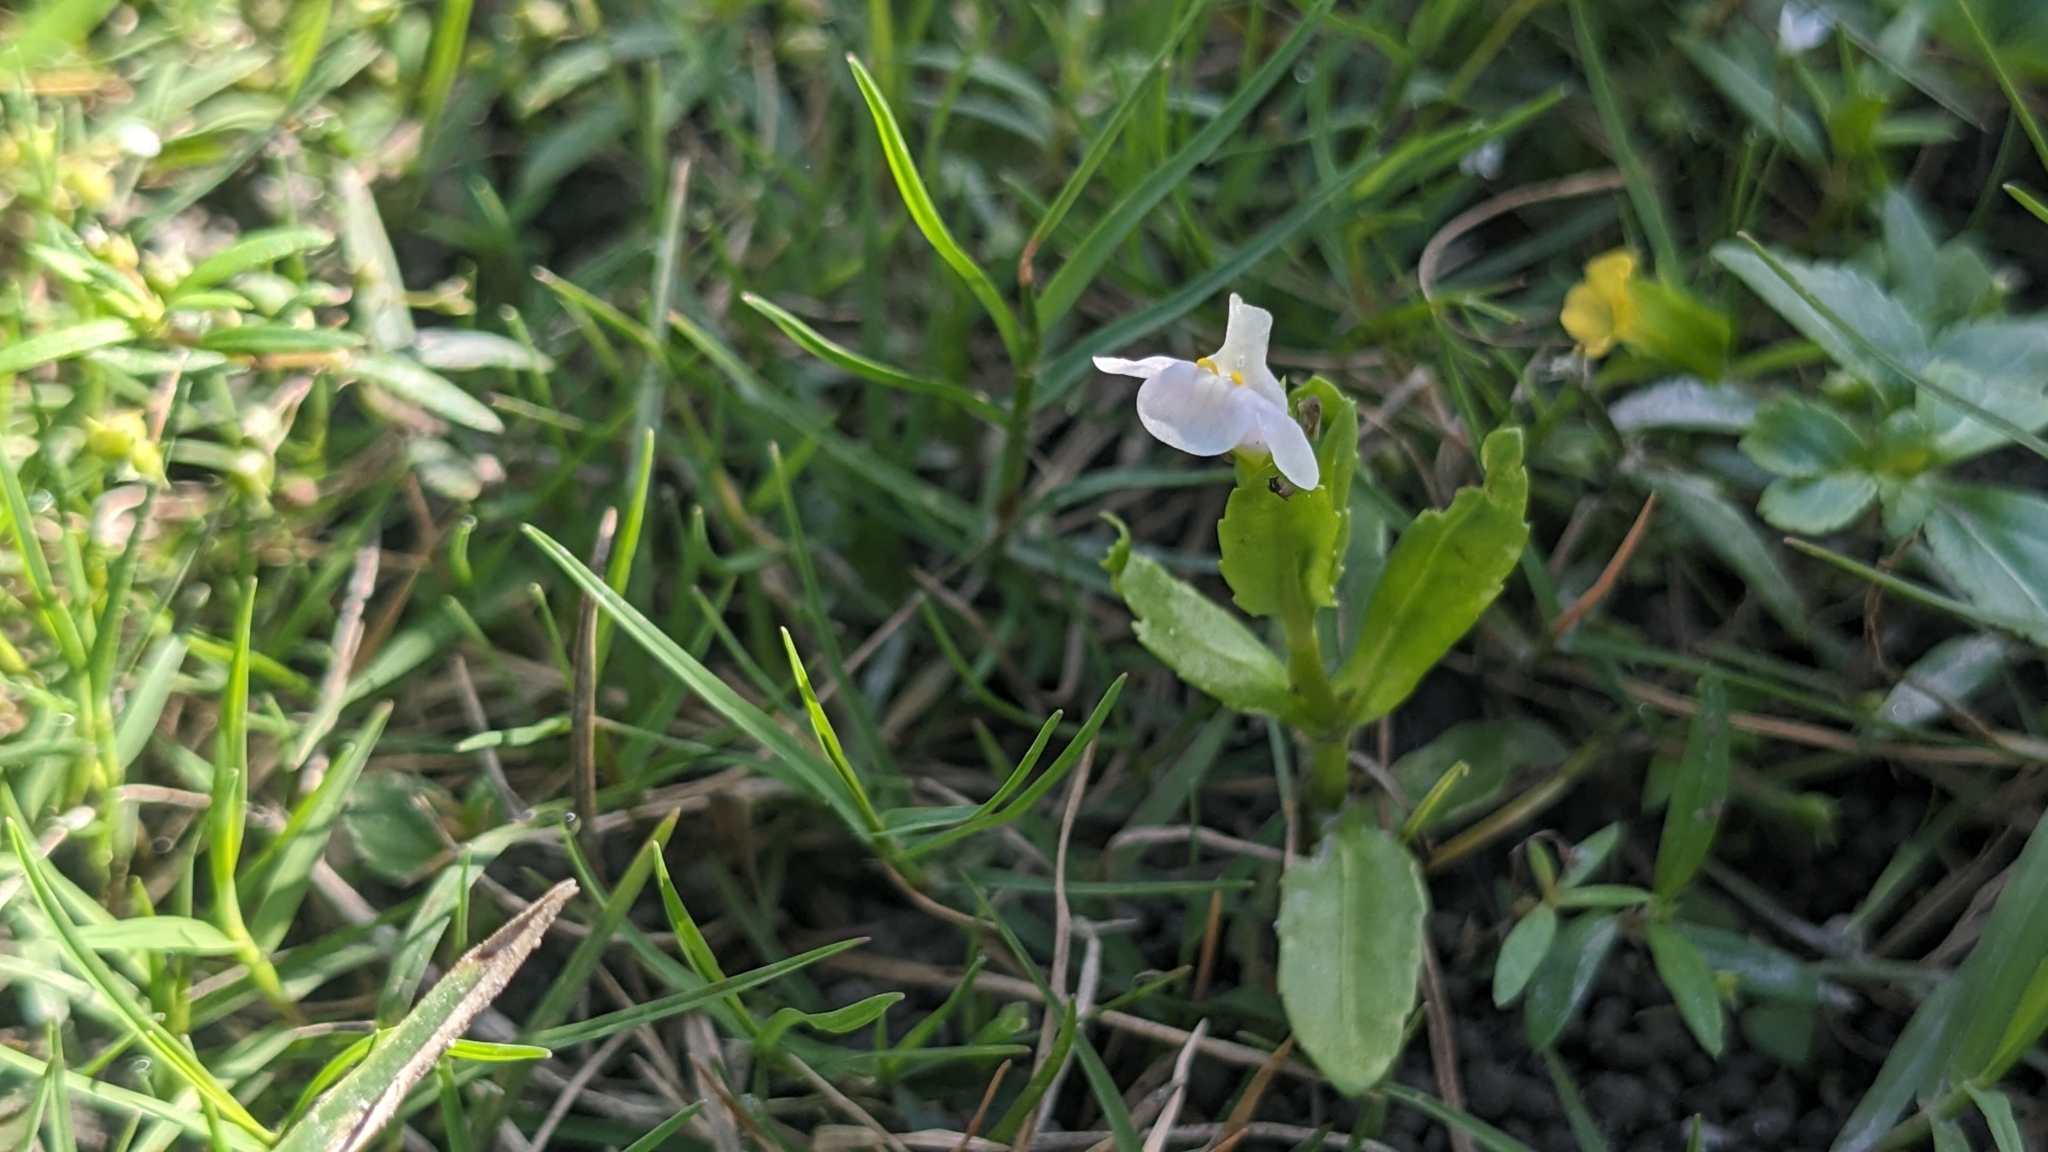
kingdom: Plantae
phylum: Tracheophyta
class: Magnoliopsida
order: Lamiales
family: Linderniaceae
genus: Bonnaya
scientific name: Bonnaya antipoda
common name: Sparrow false pimpernel
